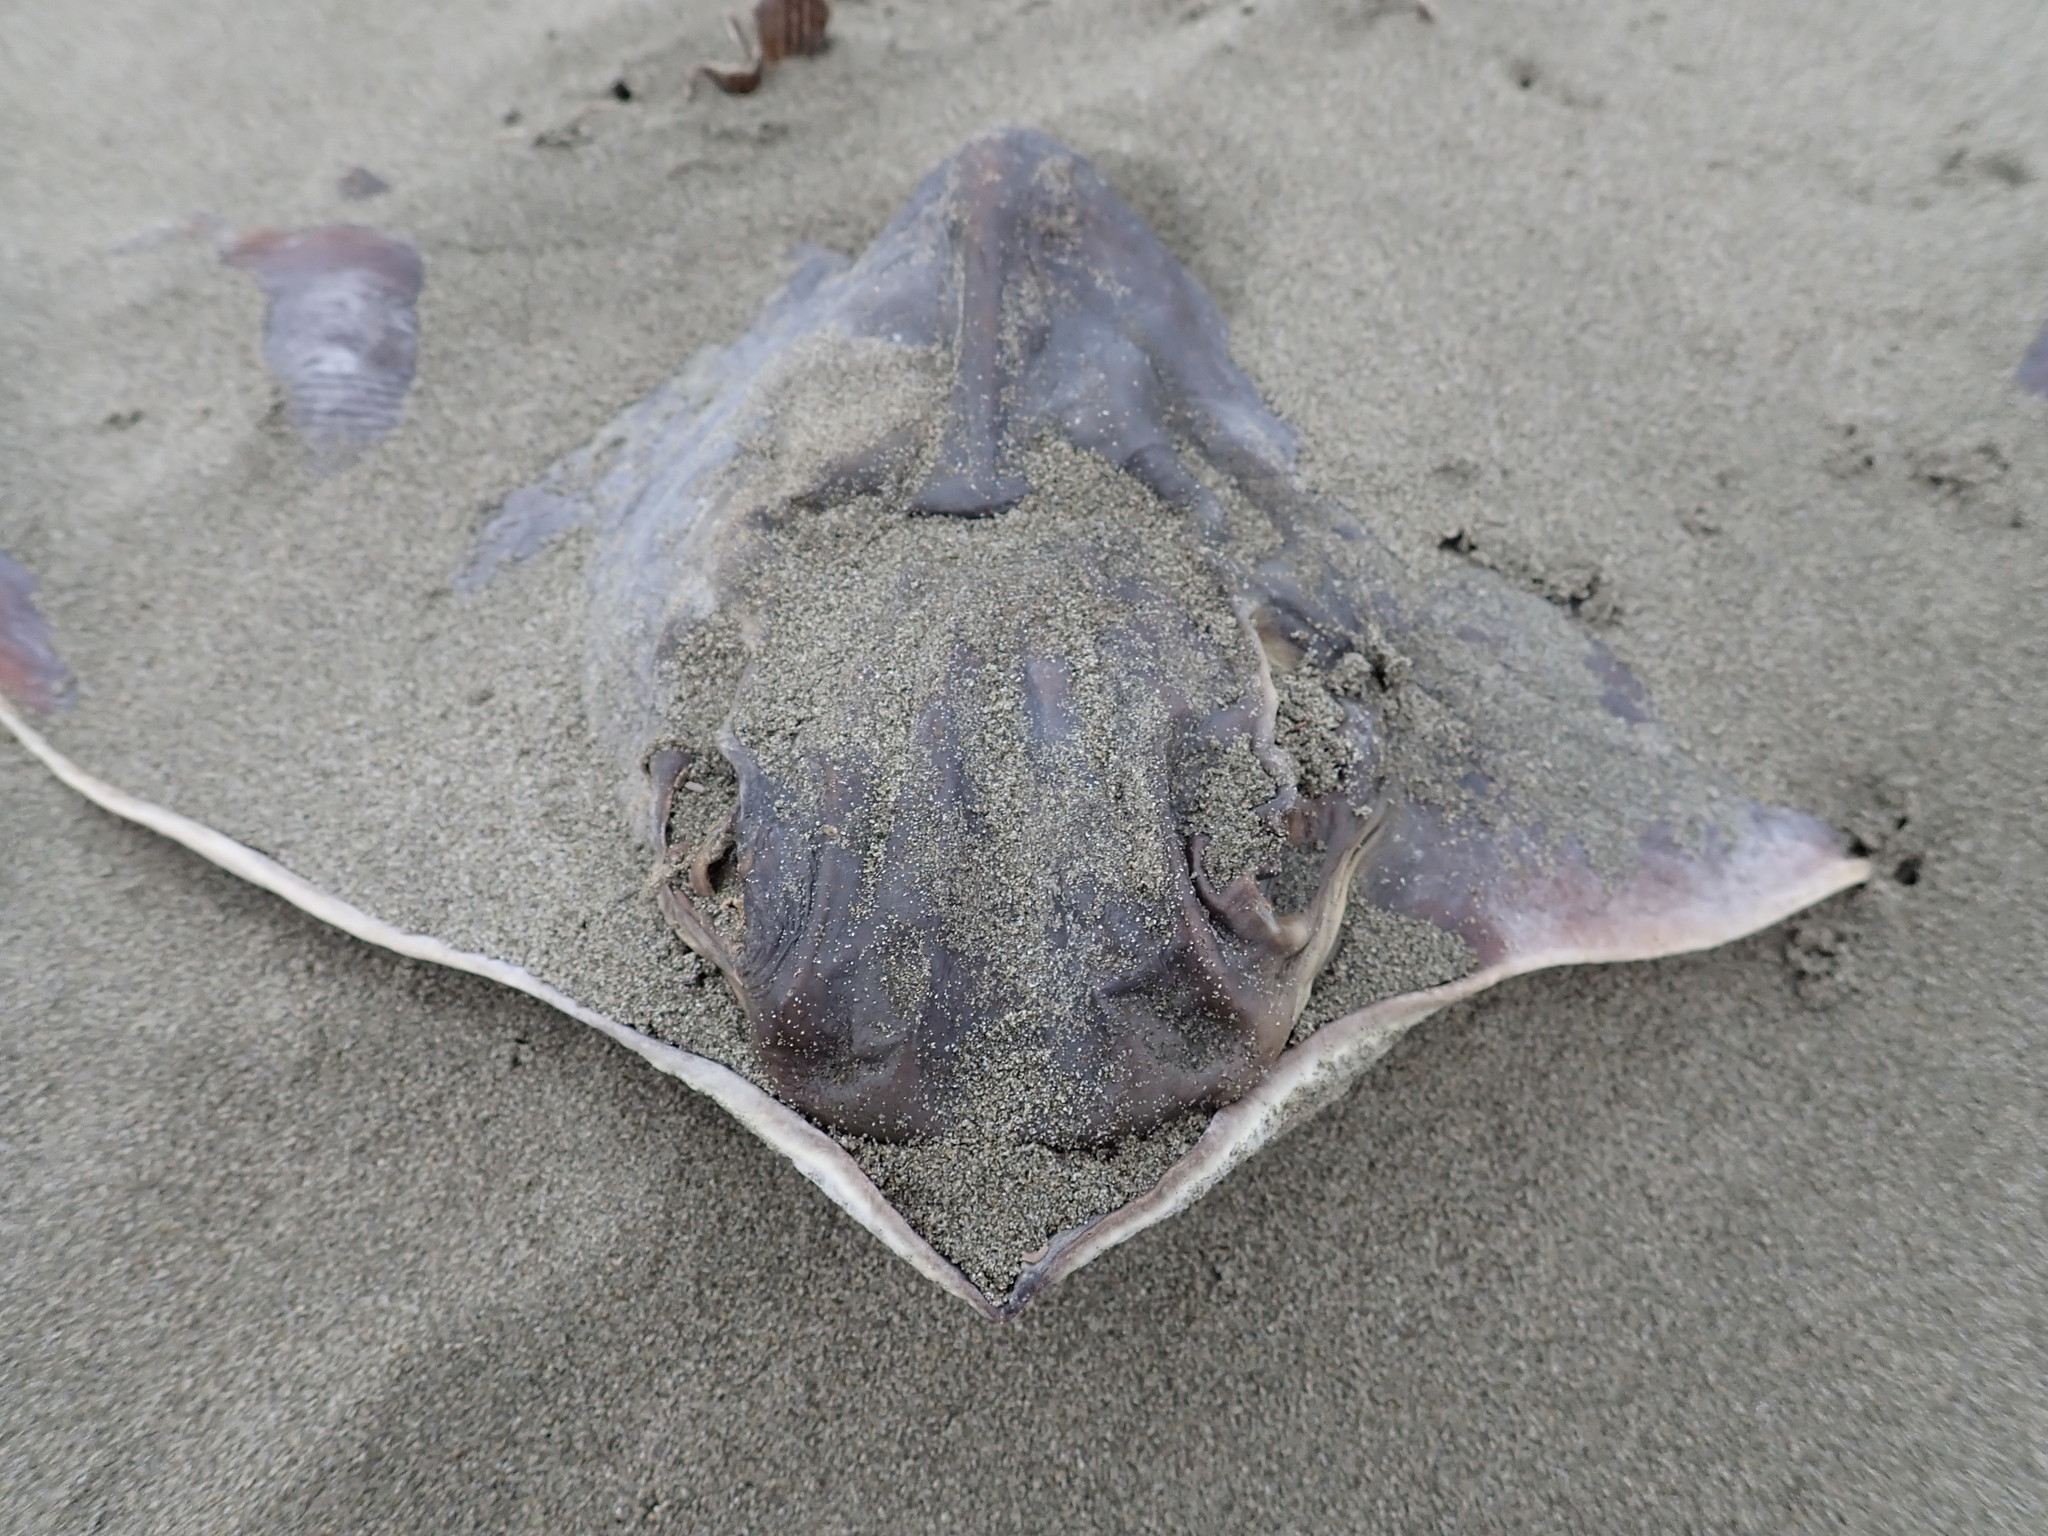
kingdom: Animalia
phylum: Chordata
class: Elasmobranchii
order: Myliobatiformes
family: Myliobatidae
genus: Myliobatis
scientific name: Myliobatis tenuicaudatus
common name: Eagle ray
